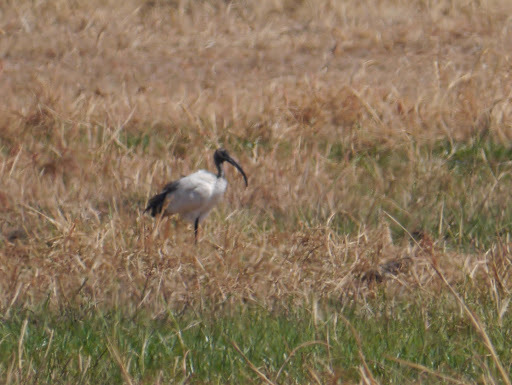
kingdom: Animalia
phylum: Chordata
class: Aves
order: Pelecaniformes
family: Threskiornithidae
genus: Threskiornis
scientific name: Threskiornis aethiopicus
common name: Sacred ibis
